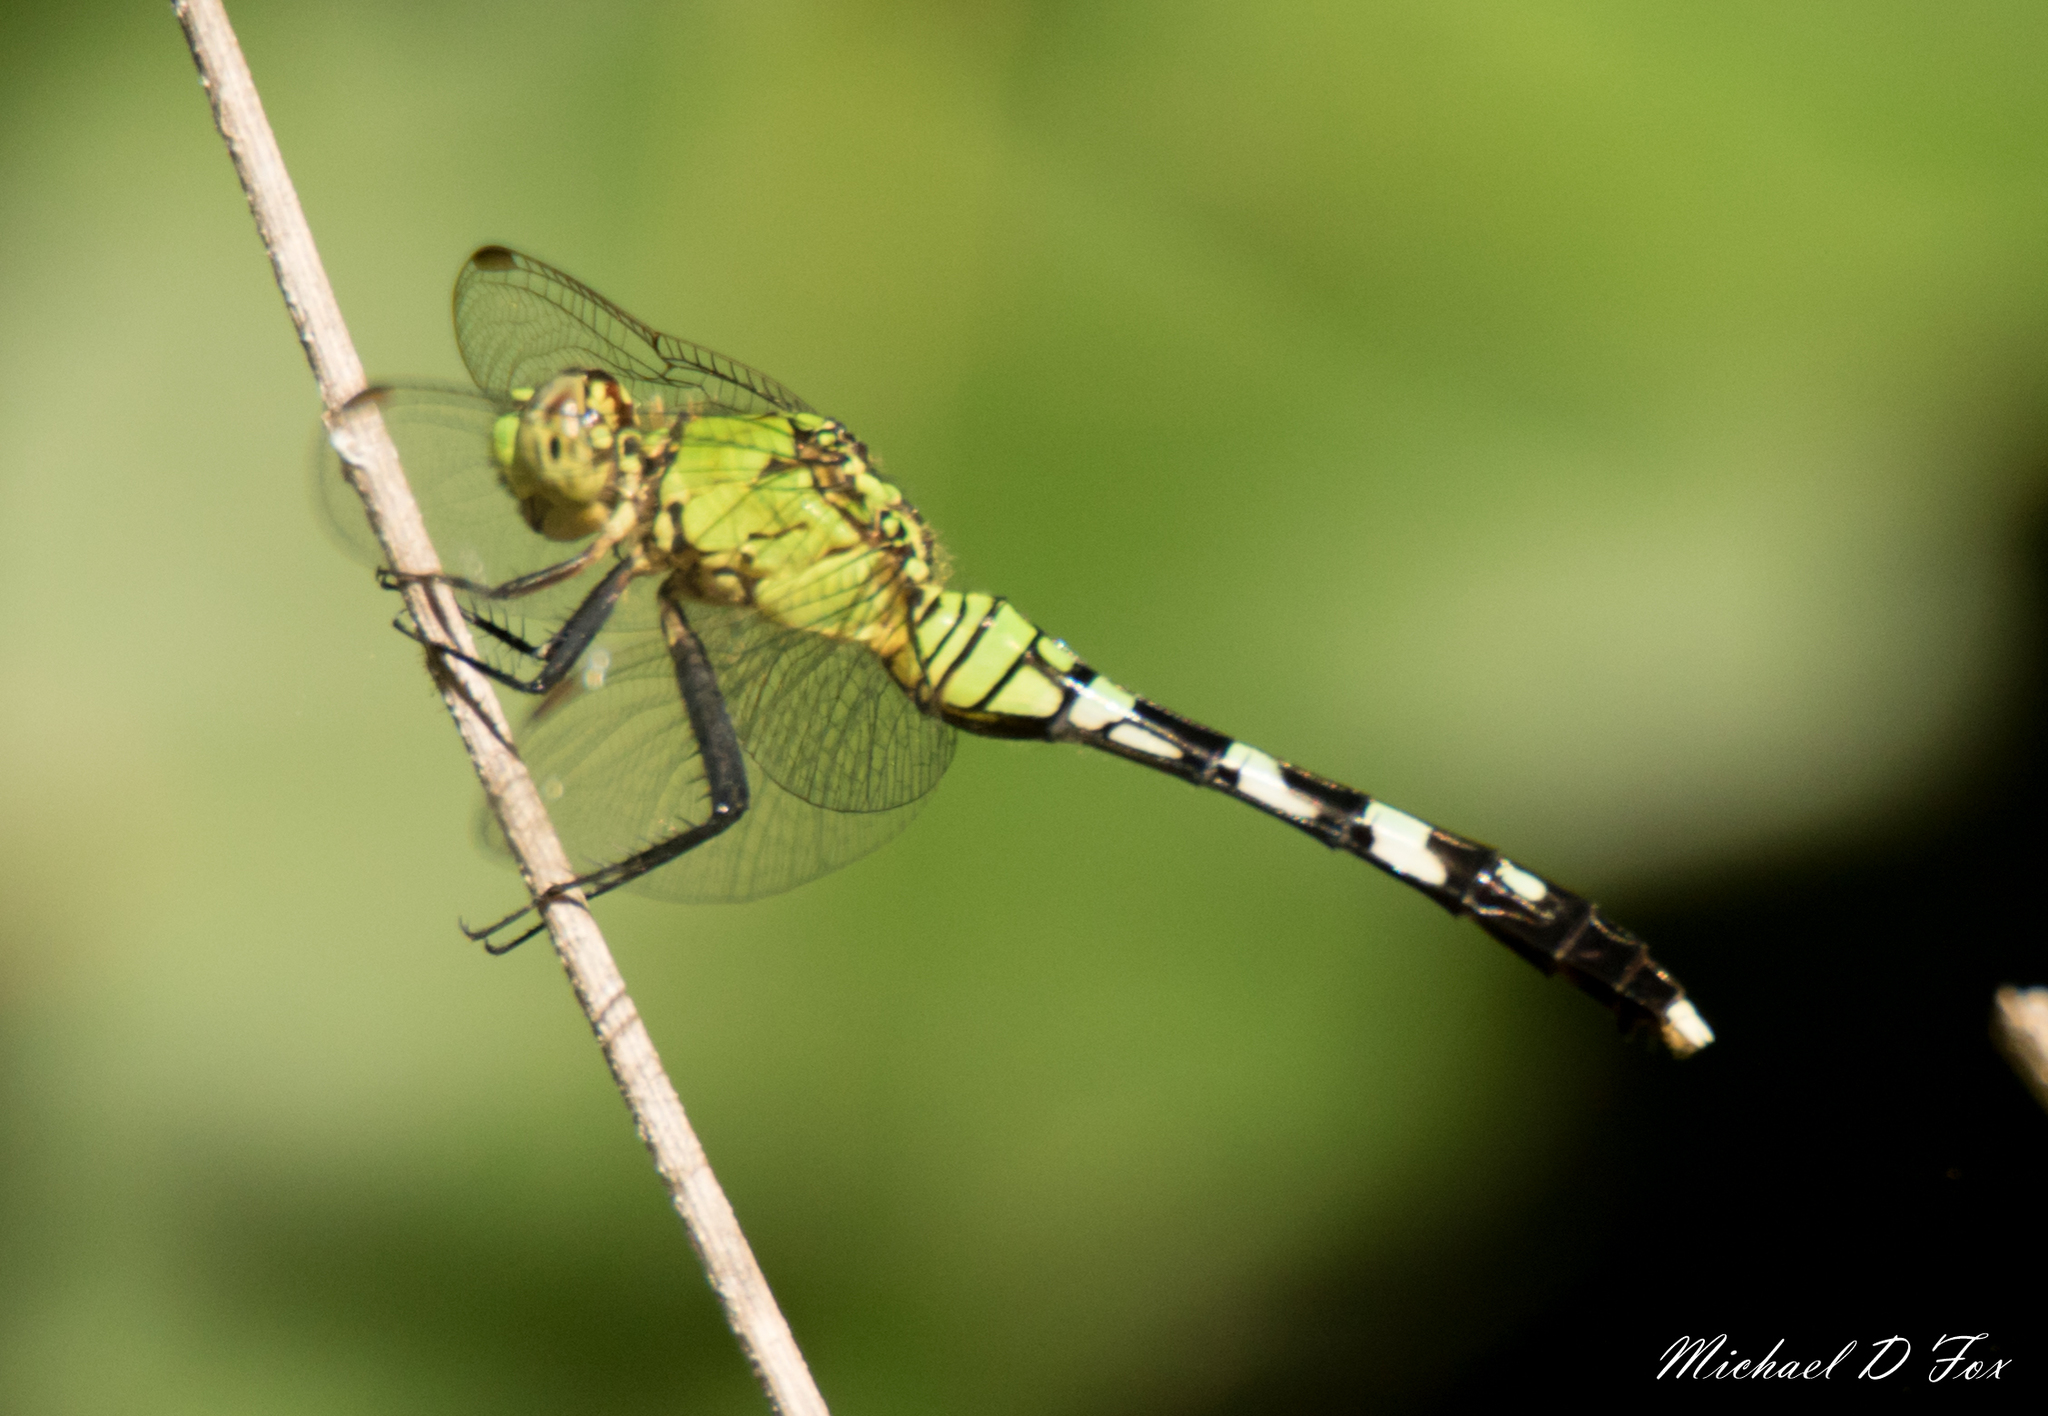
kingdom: Animalia
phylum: Arthropoda
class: Insecta
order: Odonata
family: Libellulidae
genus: Erythemis
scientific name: Erythemis simplicicollis
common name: Eastern pondhawk
